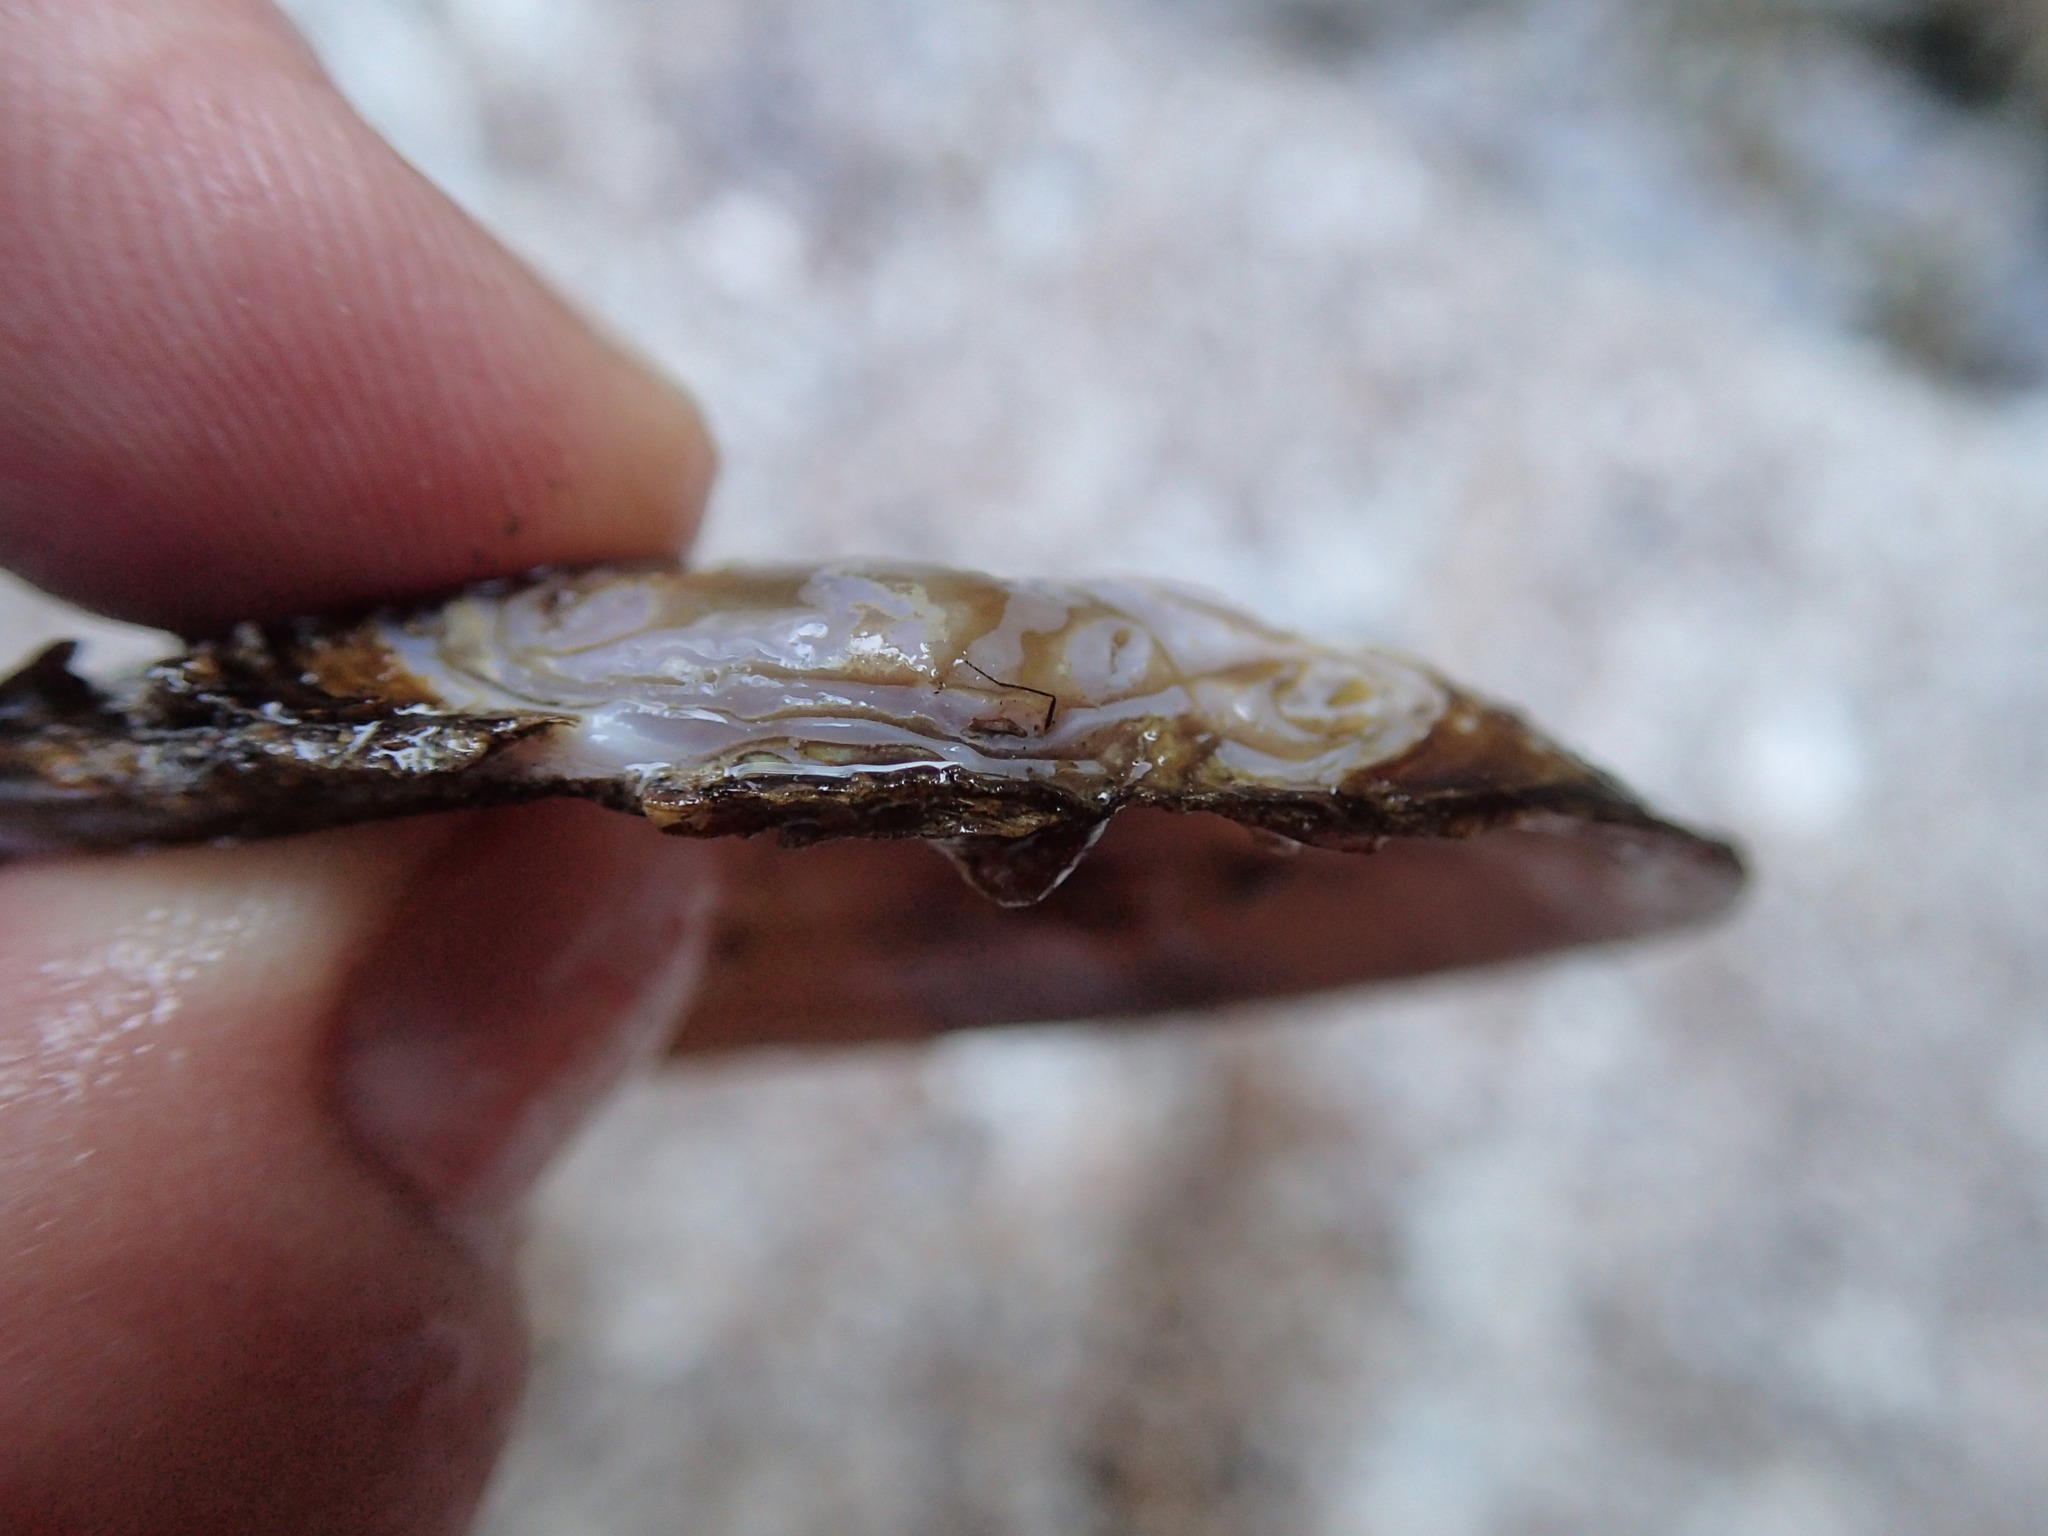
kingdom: Animalia
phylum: Mollusca
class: Bivalvia
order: Unionida
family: Margaritiferidae
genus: Margaritifera
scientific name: Margaritifera falcata
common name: Western pearlshell
